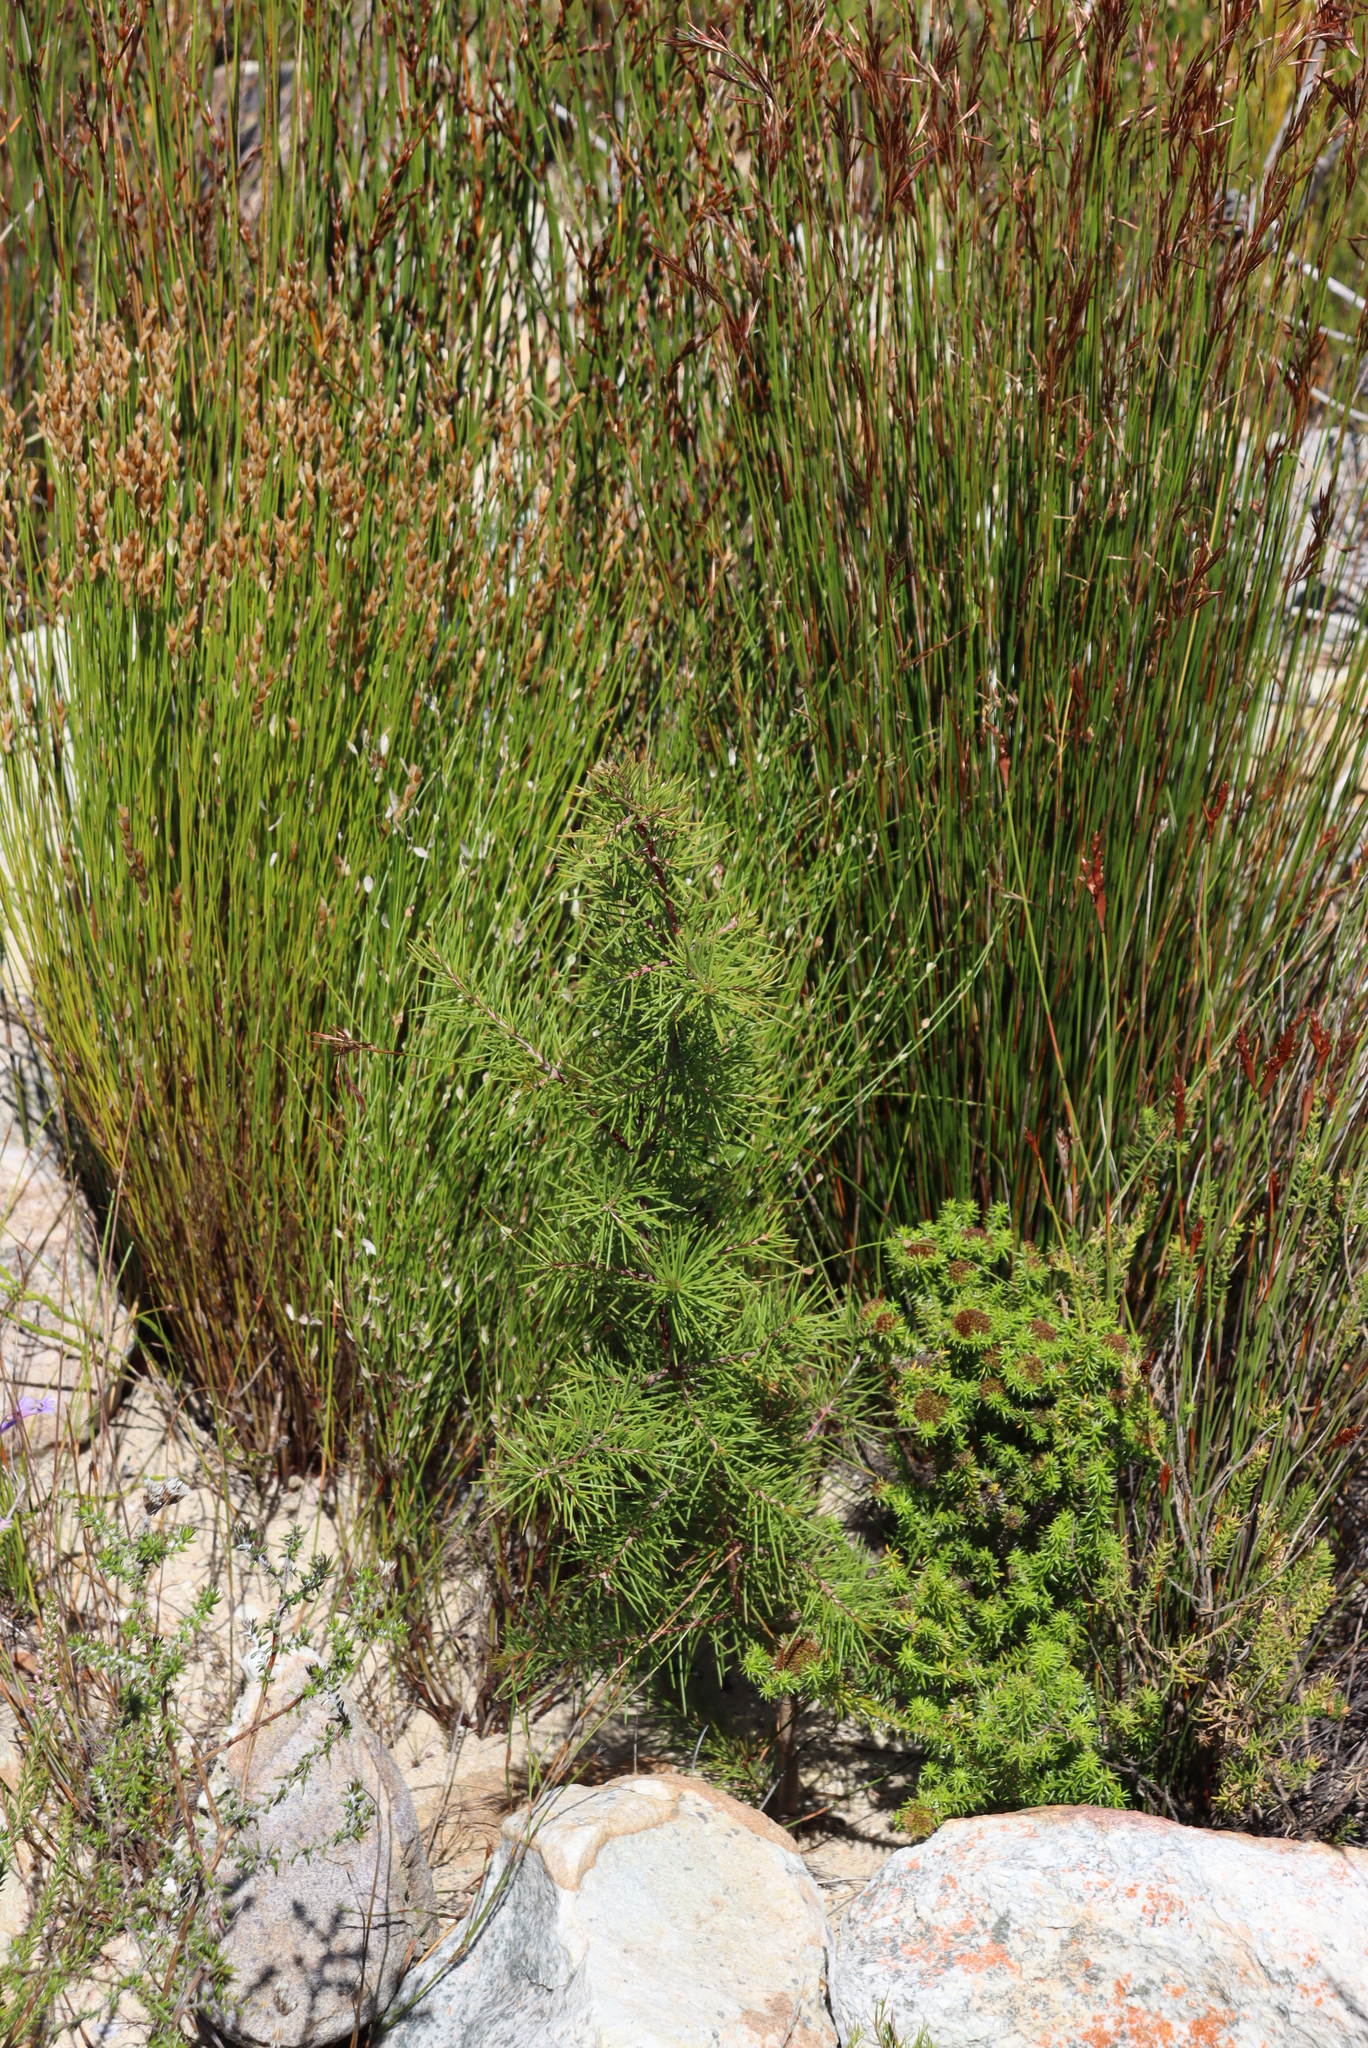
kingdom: Plantae
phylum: Tracheophyta
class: Magnoliopsida
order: Proteales
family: Proteaceae
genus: Hakea
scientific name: Hakea sericea
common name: Needle bush
